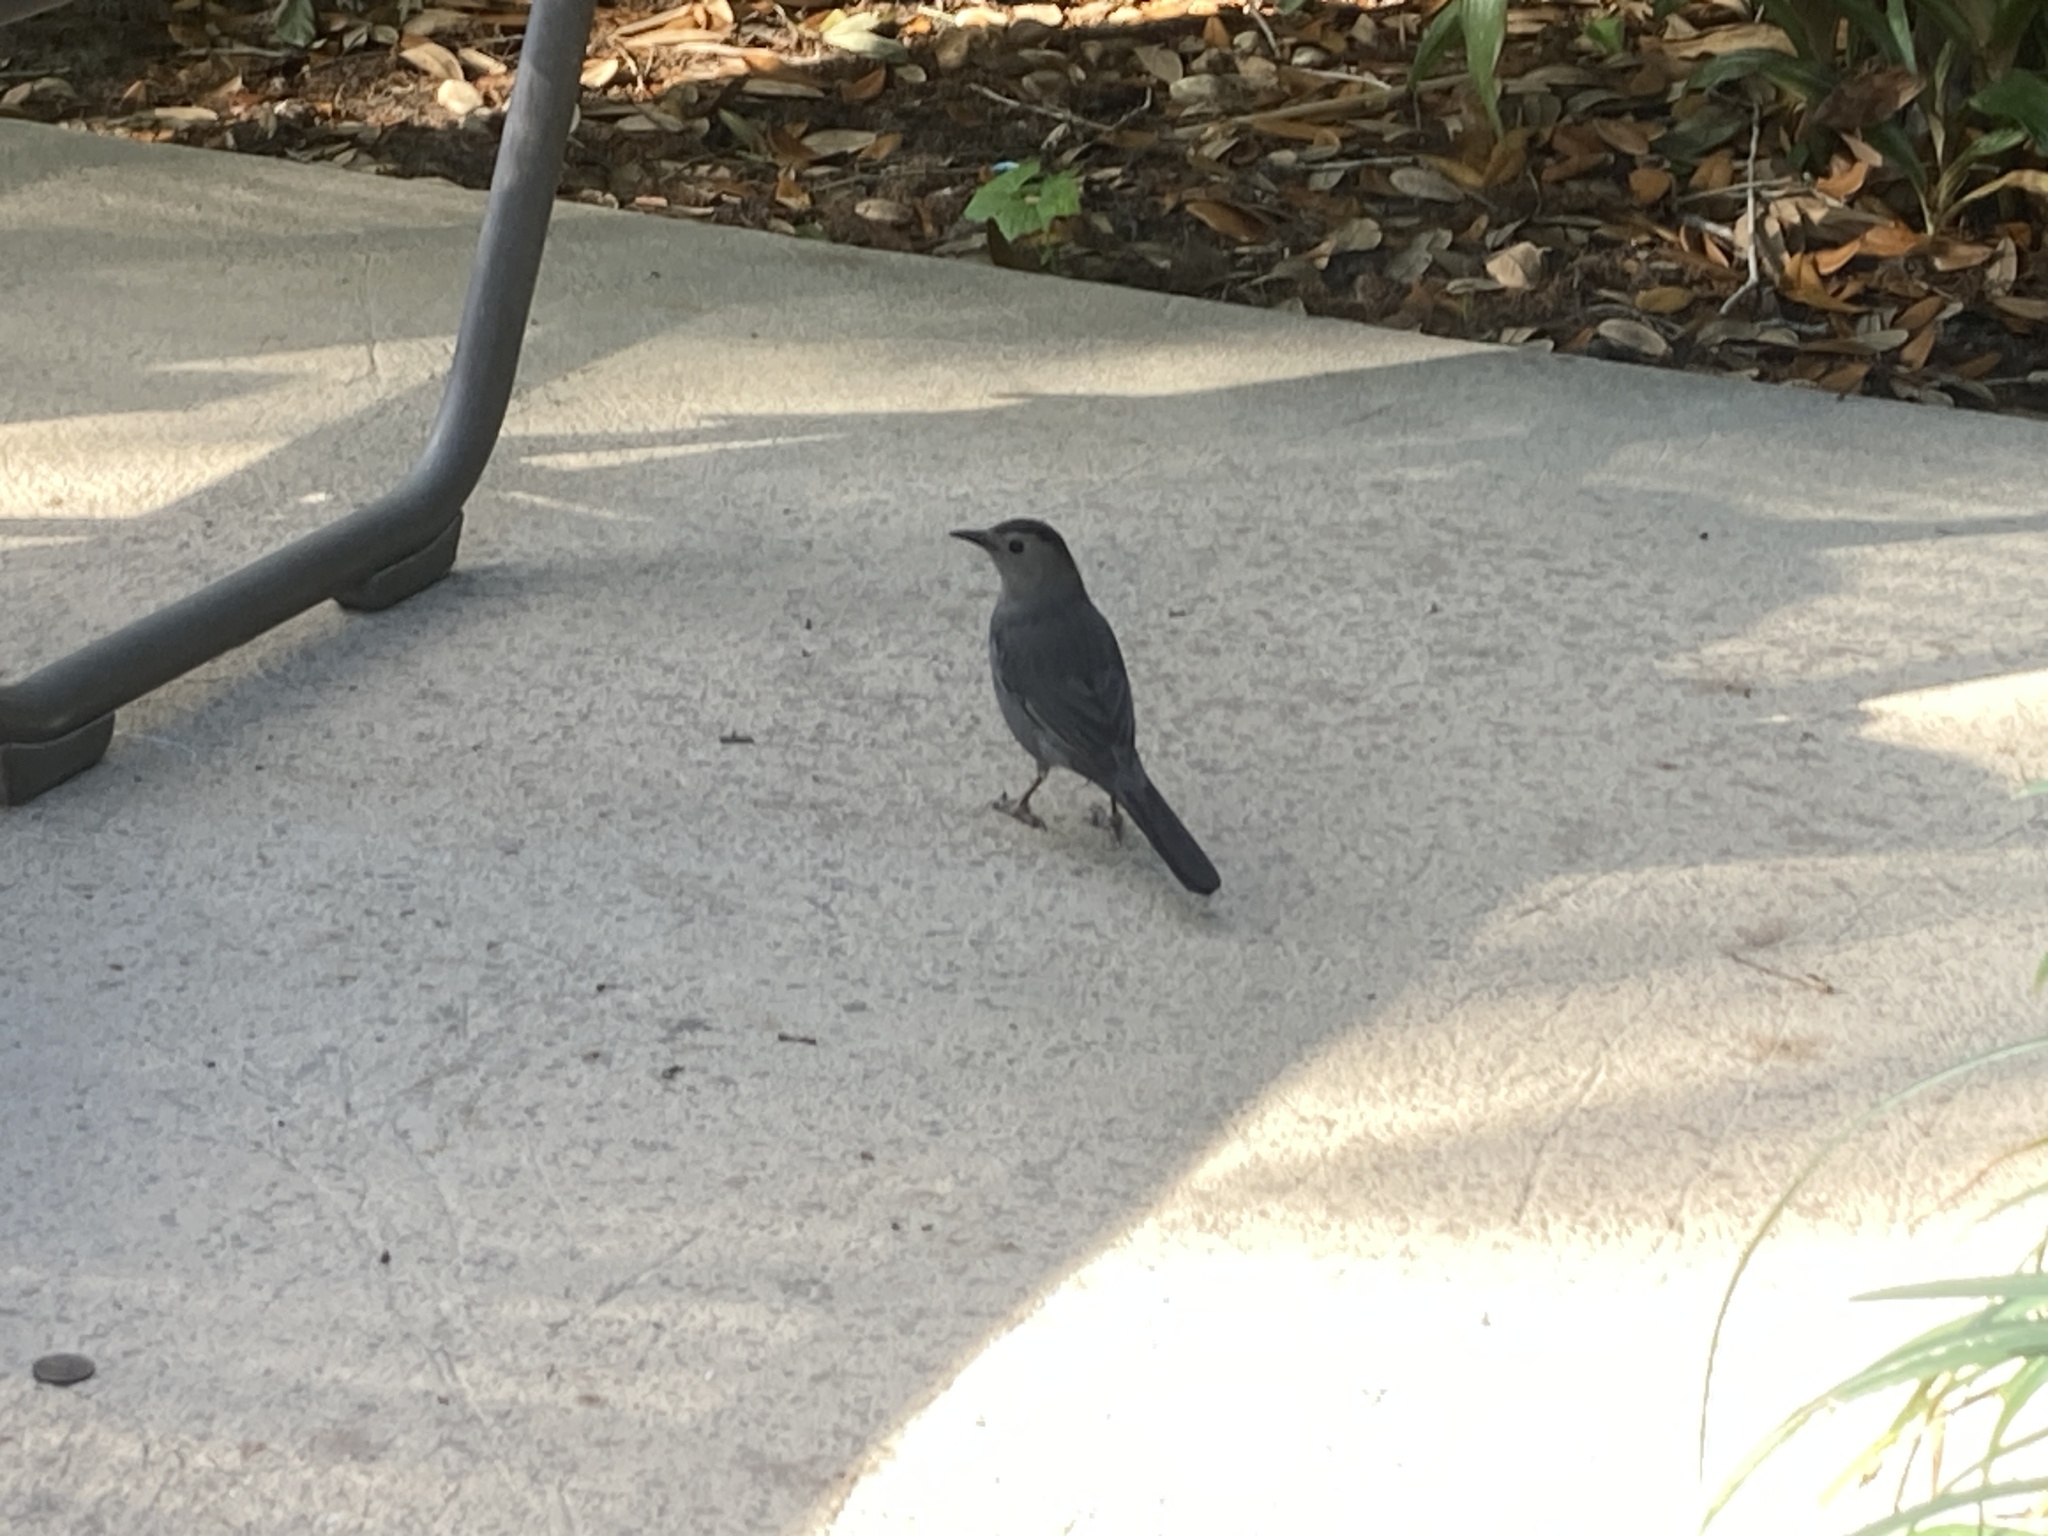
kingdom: Animalia
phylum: Chordata
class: Aves
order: Passeriformes
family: Mimidae
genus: Dumetella
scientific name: Dumetella carolinensis
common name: Gray catbird
